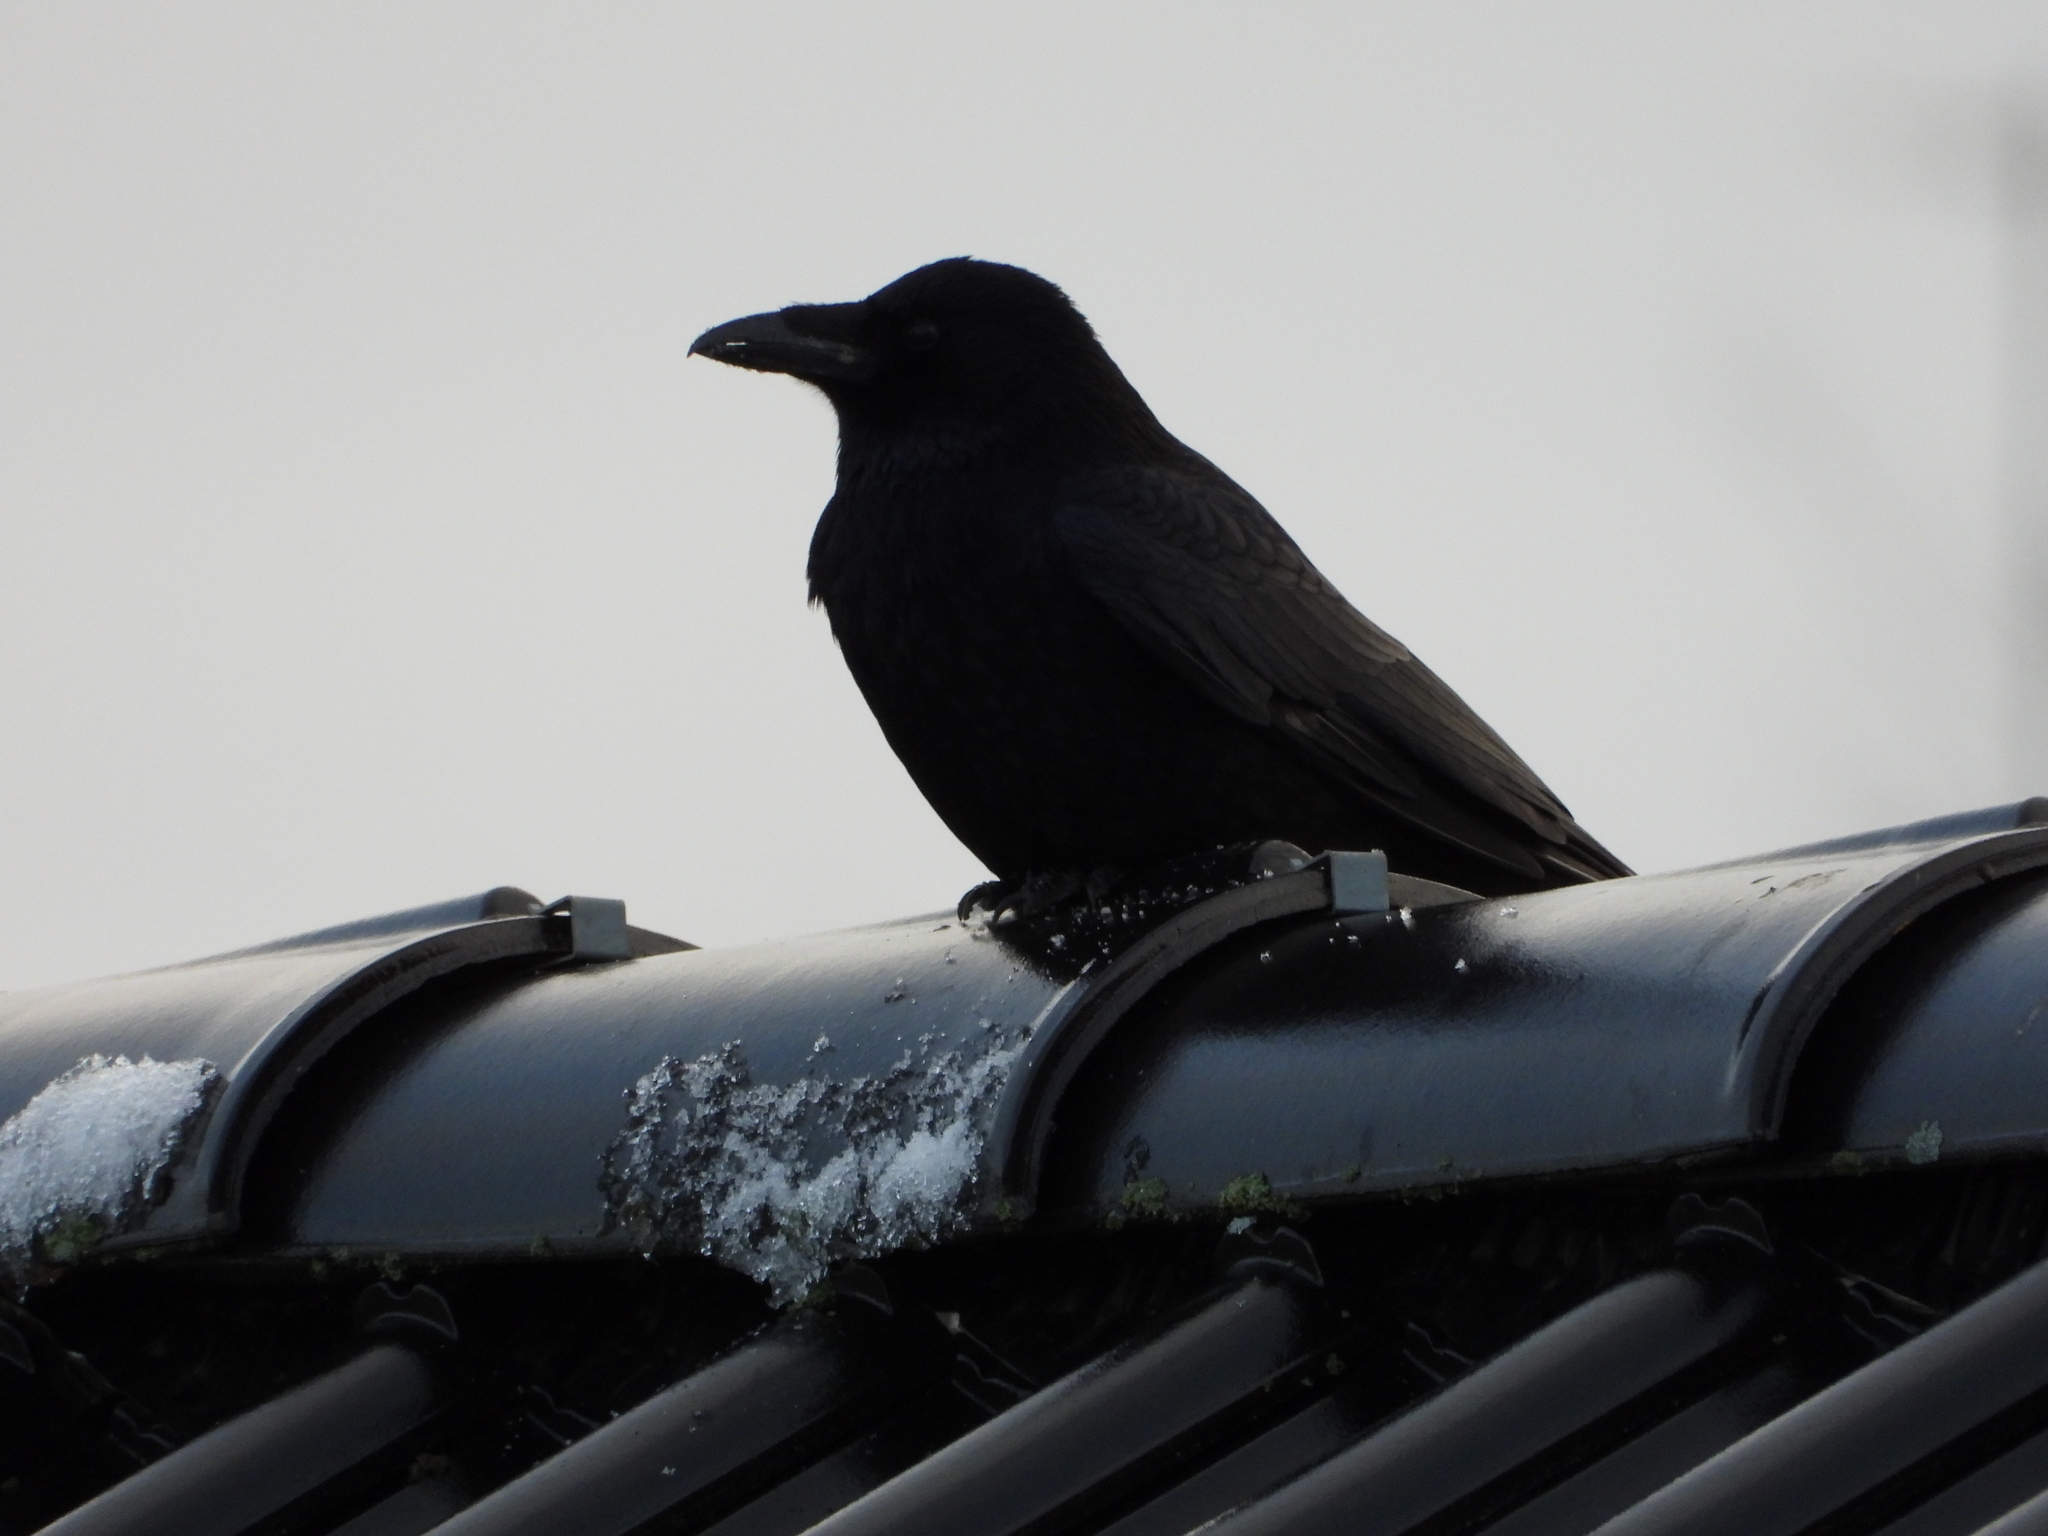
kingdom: Animalia
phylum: Chordata
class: Aves
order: Passeriformes
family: Corvidae
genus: Corvus
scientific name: Corvus corone
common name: Carrion crow
